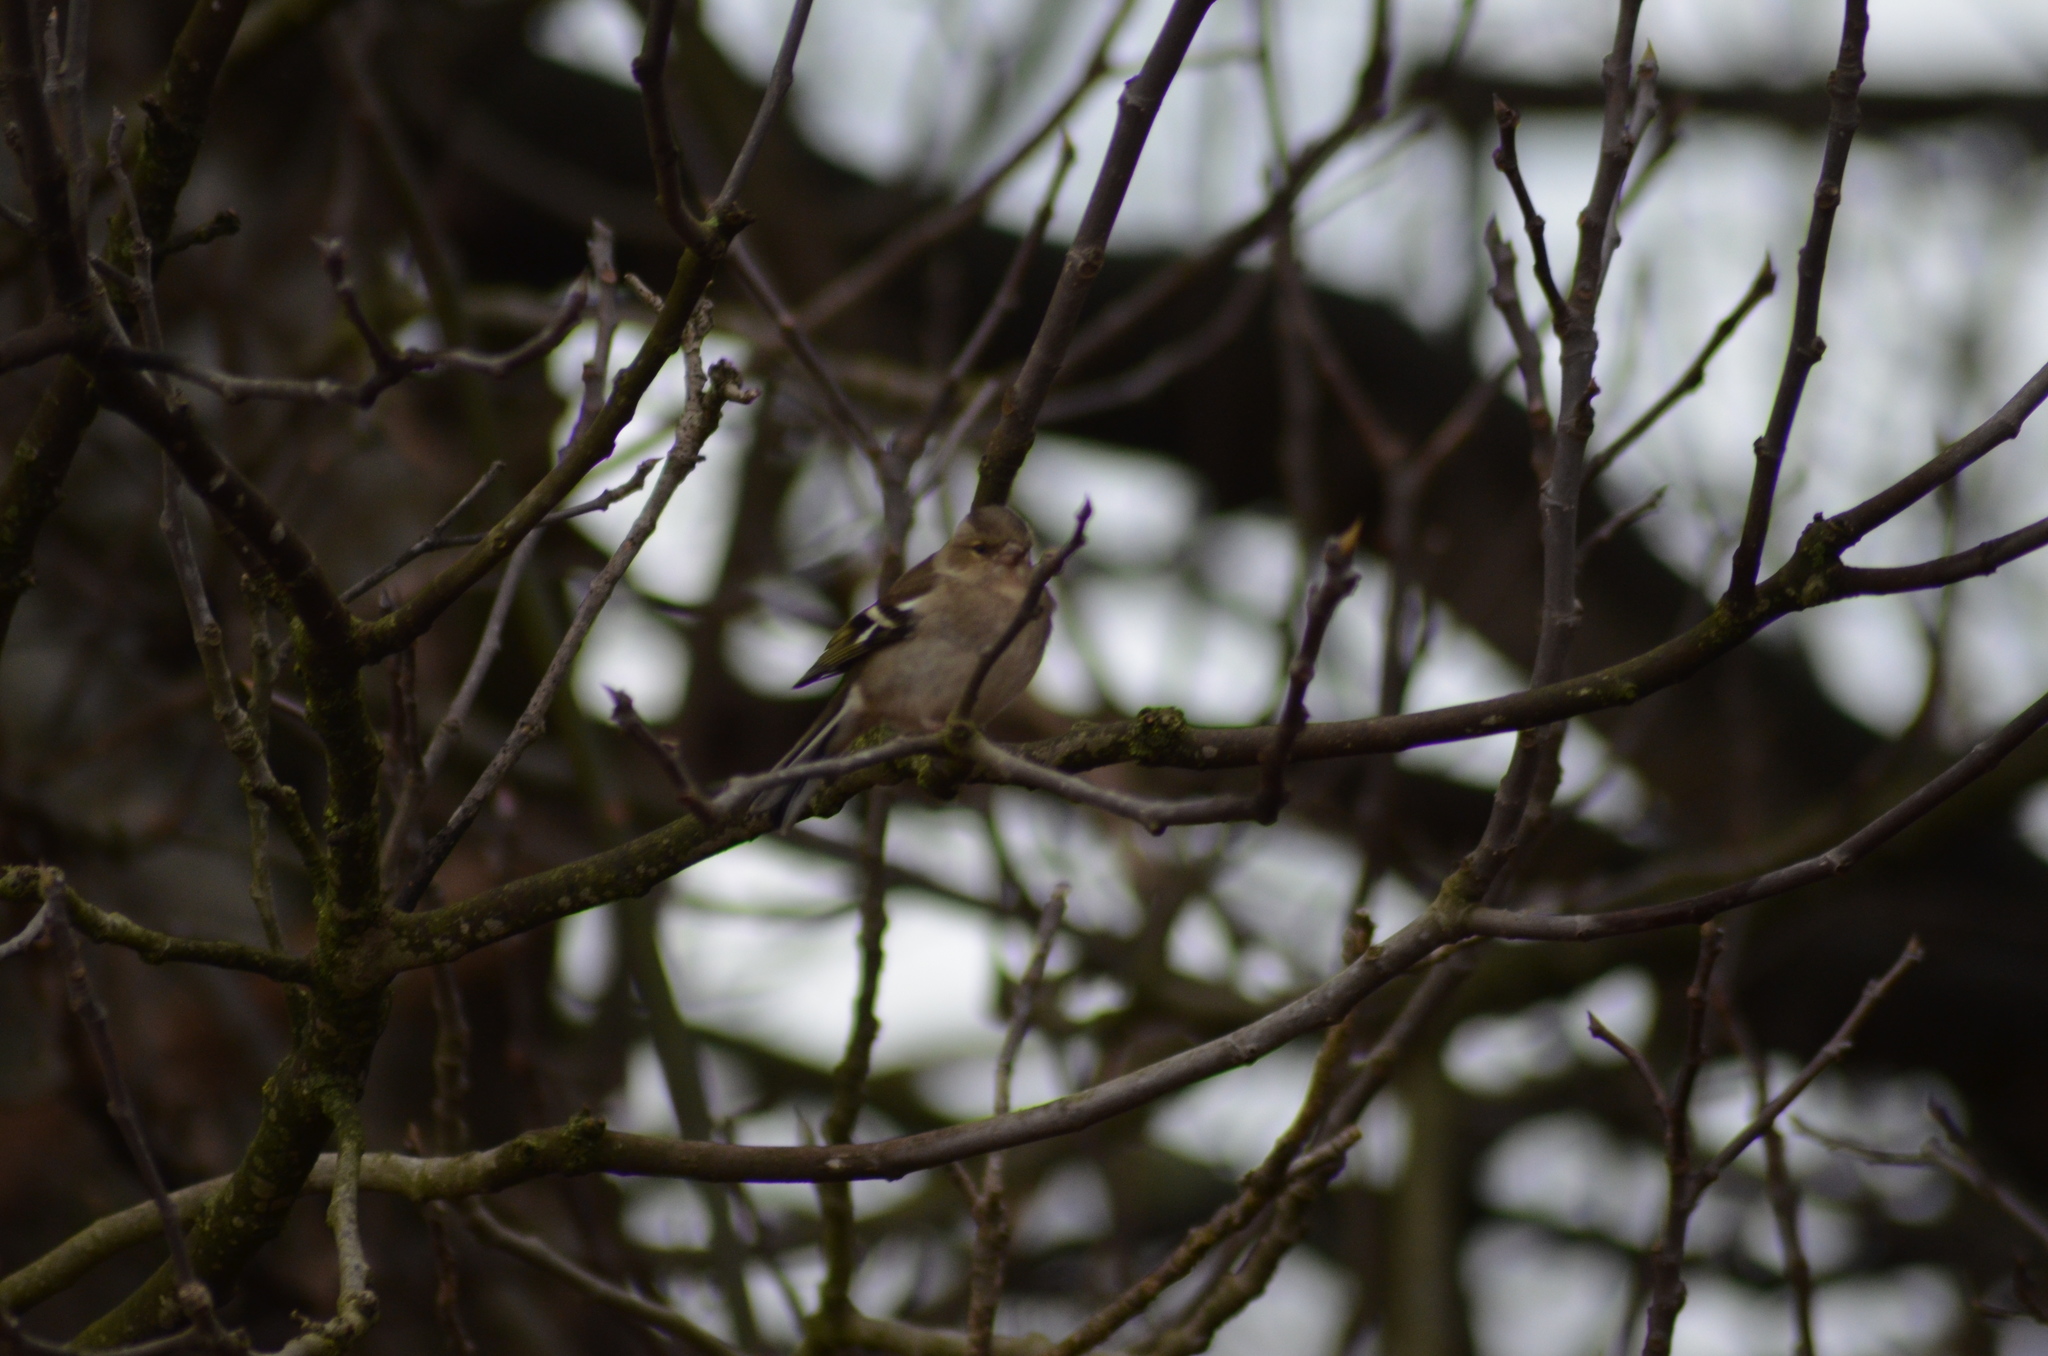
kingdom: Animalia
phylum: Chordata
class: Aves
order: Passeriformes
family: Fringillidae
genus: Fringilla
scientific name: Fringilla coelebs
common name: Common chaffinch
